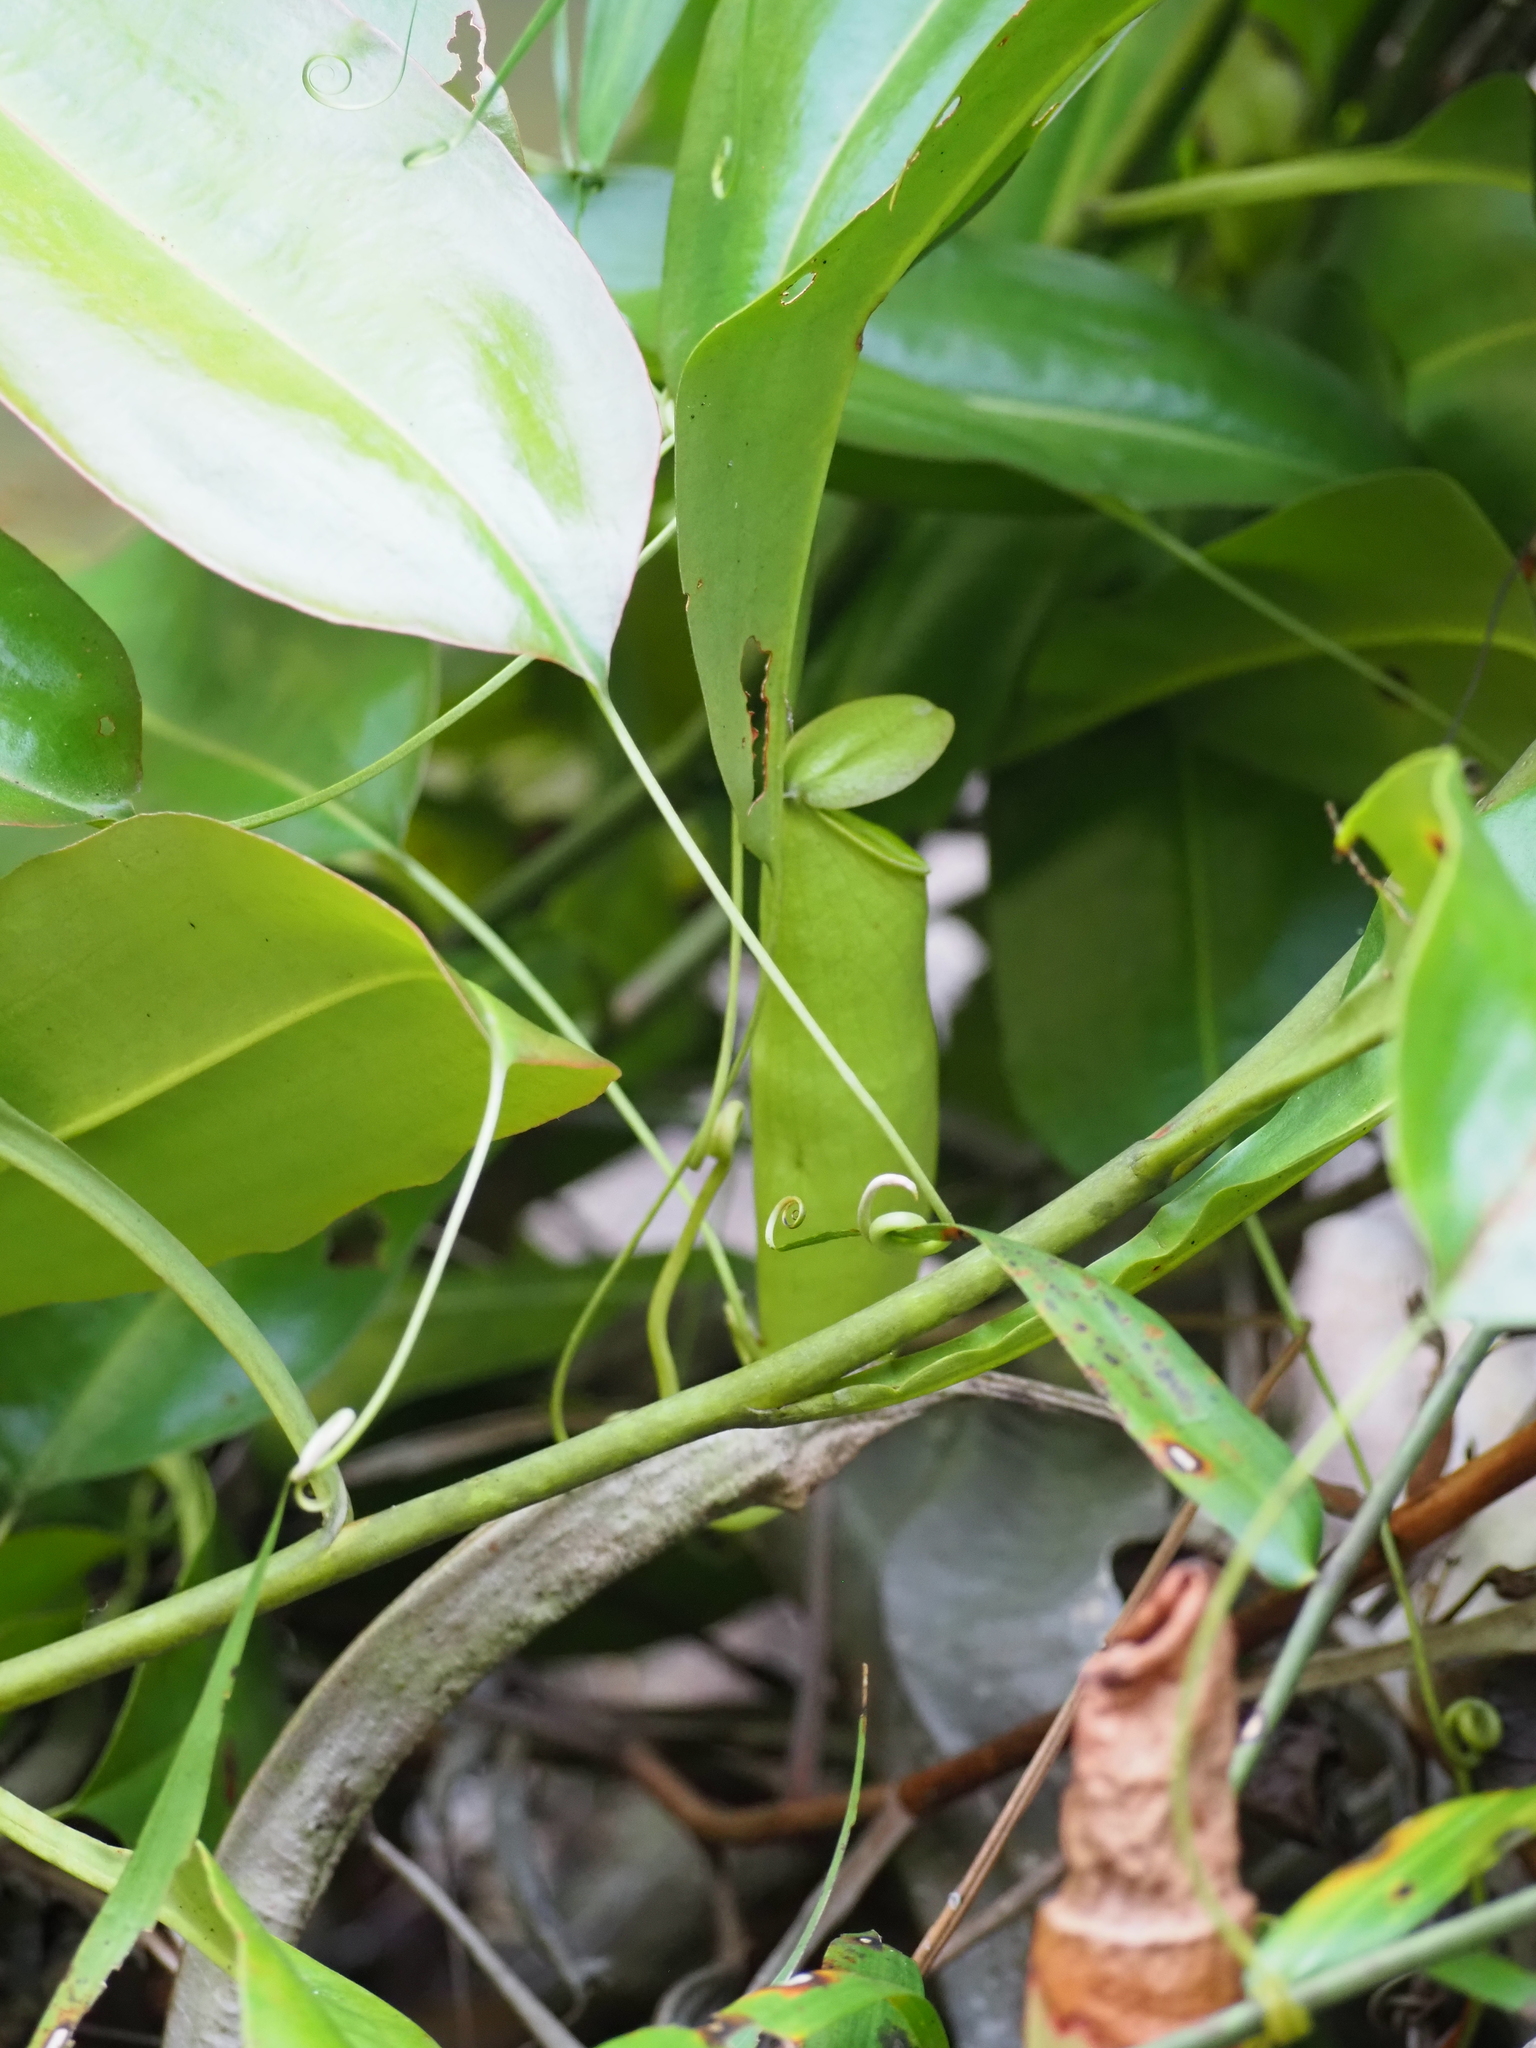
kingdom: Plantae
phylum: Tracheophyta
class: Magnoliopsida
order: Caryophyllales
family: Nepenthaceae
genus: Nepenthes
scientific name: Nepenthes mirabilis
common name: Tropical pitcherplant
